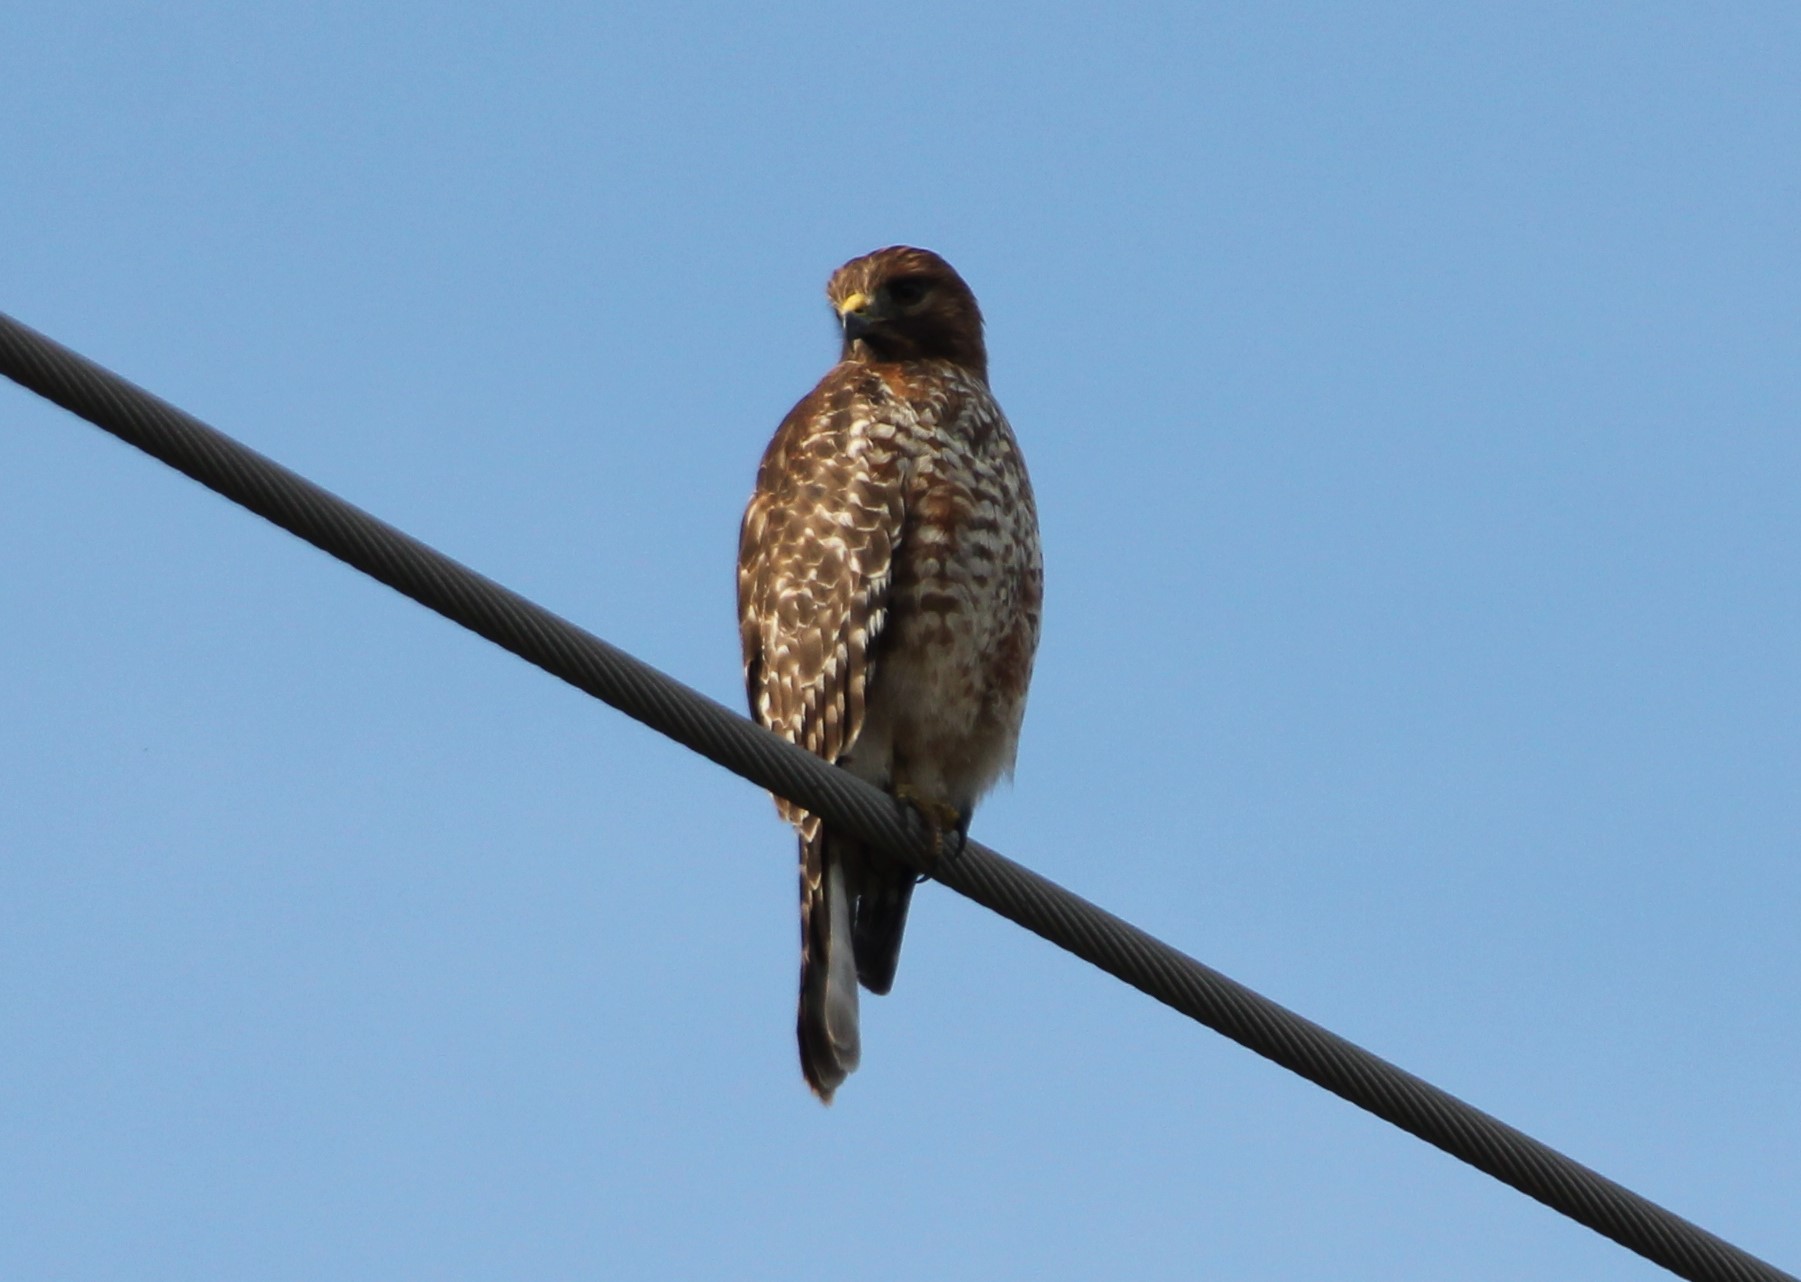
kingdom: Animalia
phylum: Chordata
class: Aves
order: Accipitriformes
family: Accipitridae
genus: Buteo
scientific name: Buteo lineatus
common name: Red-shouldered hawk
